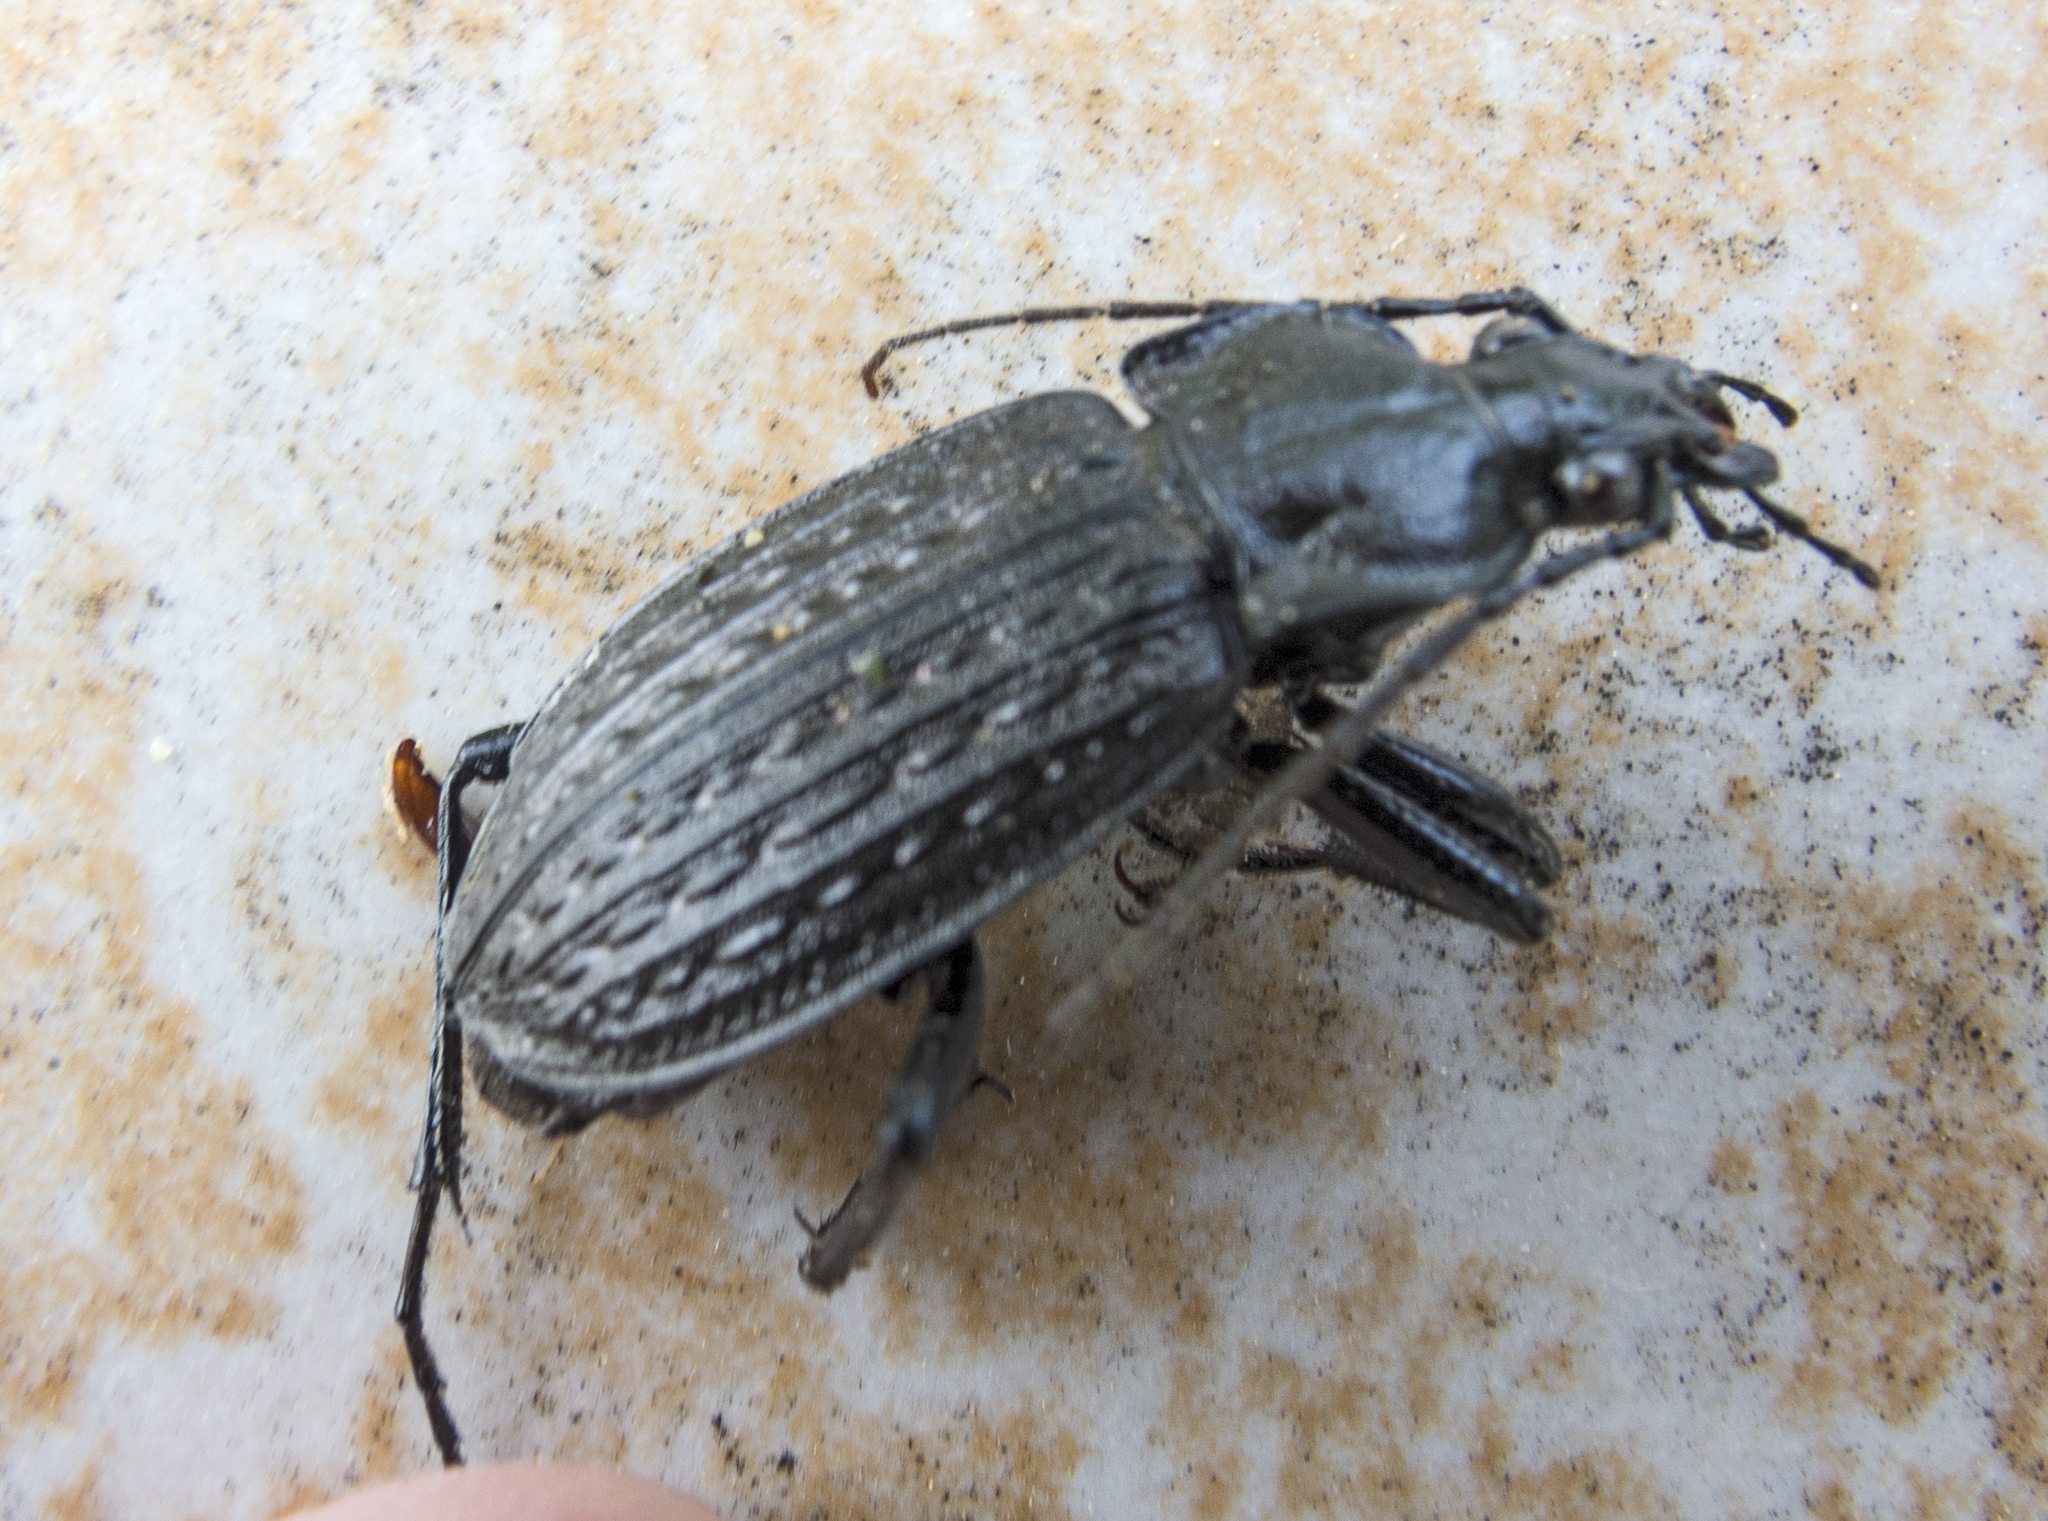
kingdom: Animalia
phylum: Arthropoda
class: Insecta
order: Coleoptera
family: Carabidae
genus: Carabus
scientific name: Carabus granulatus
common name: Granulate ground beetle
